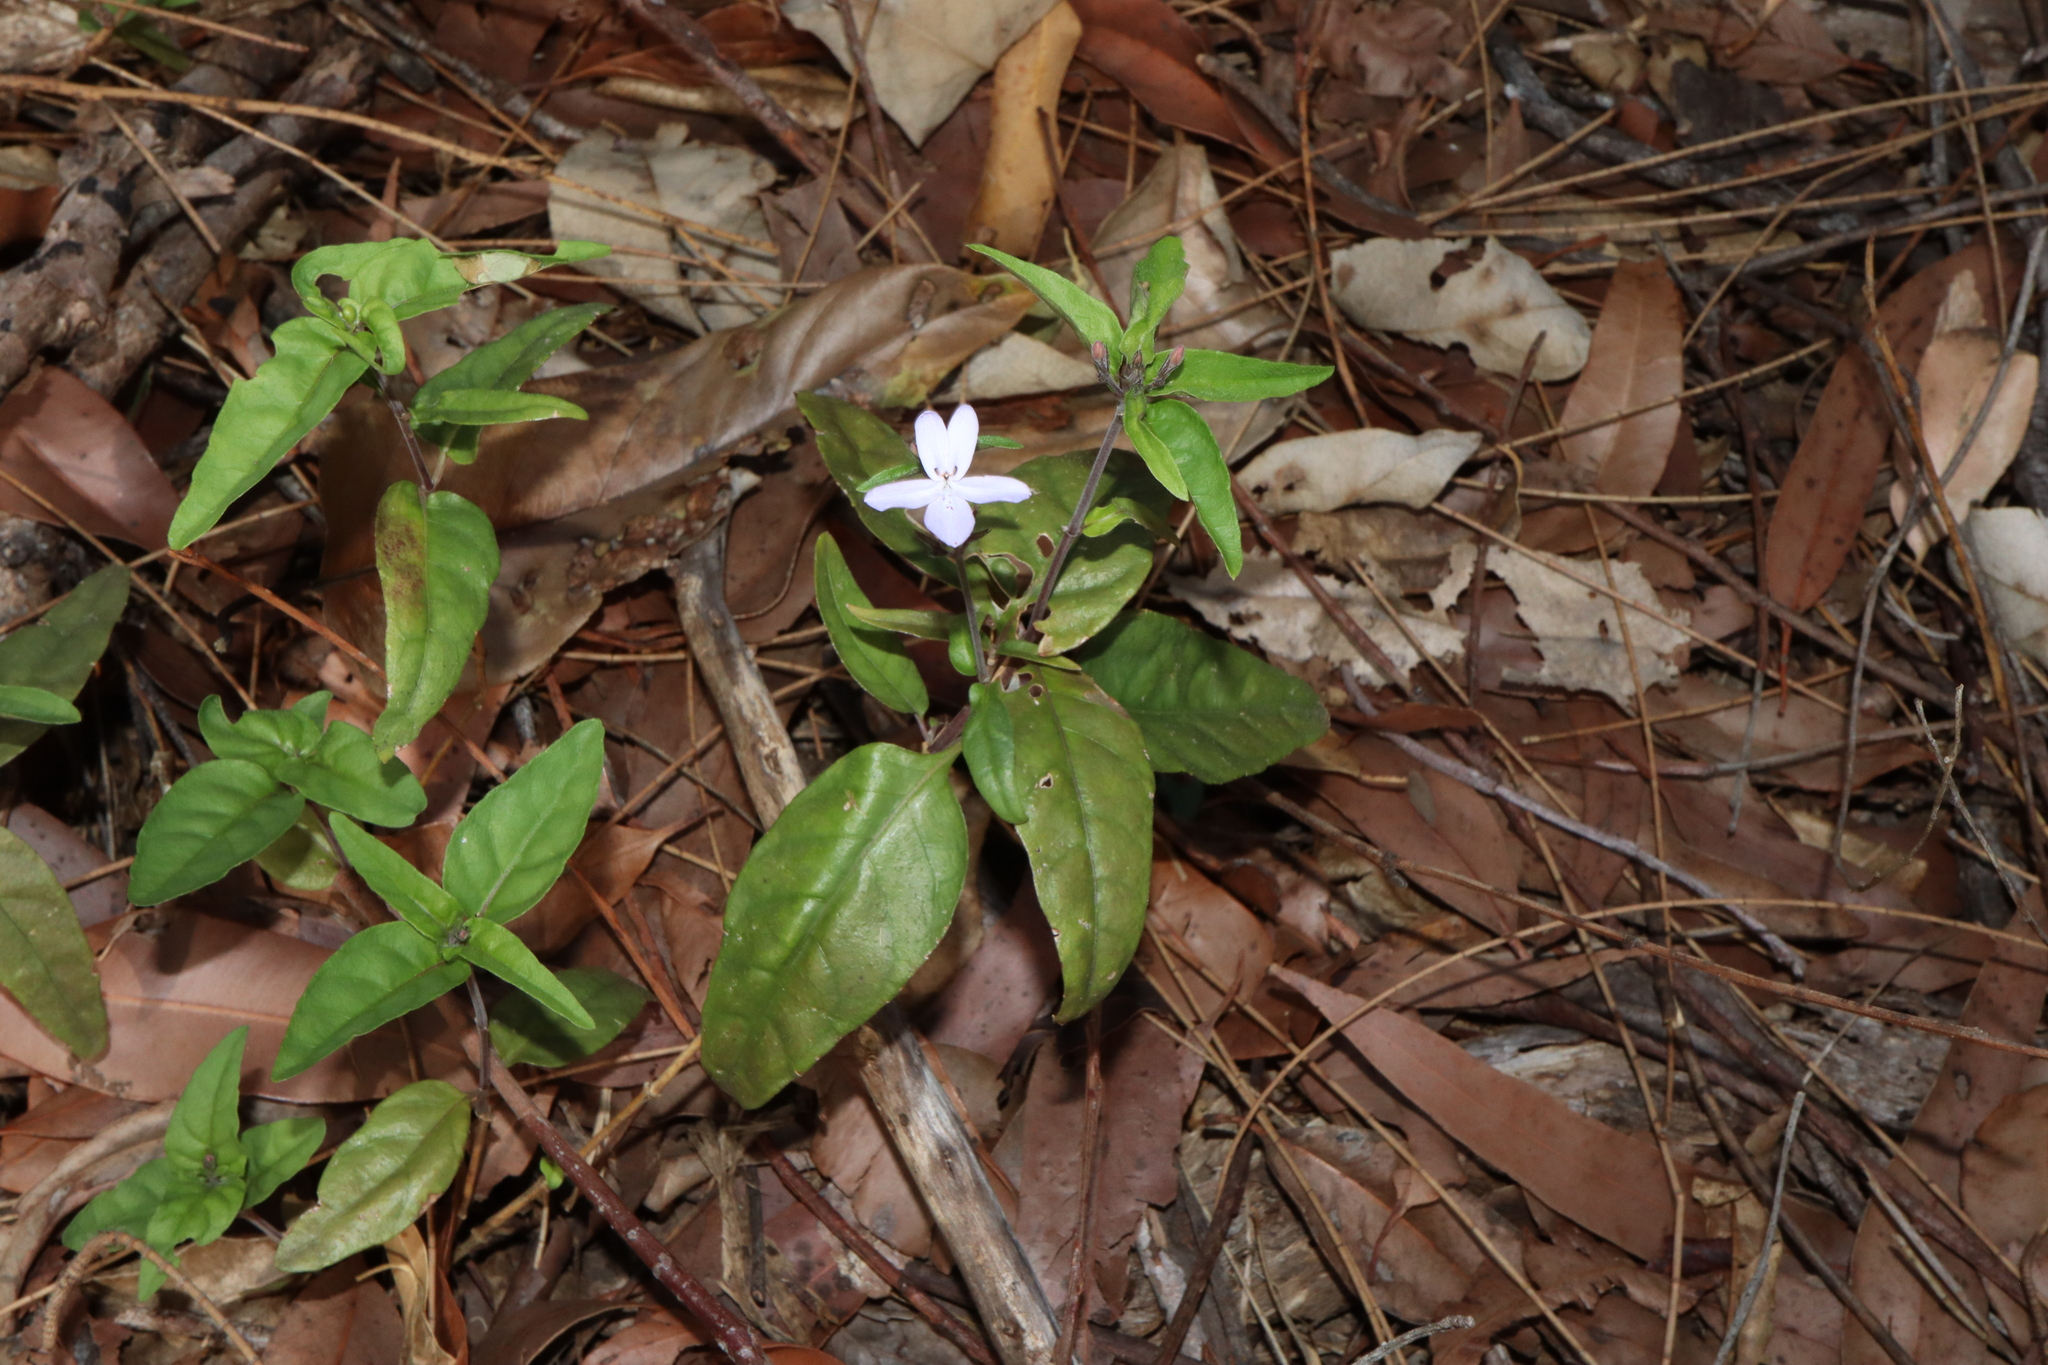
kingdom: Plantae
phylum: Tracheophyta
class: Magnoliopsida
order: Lamiales
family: Acanthaceae
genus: Pseuderanthemum
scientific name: Pseuderanthemum variabile
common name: Night and afternoon
